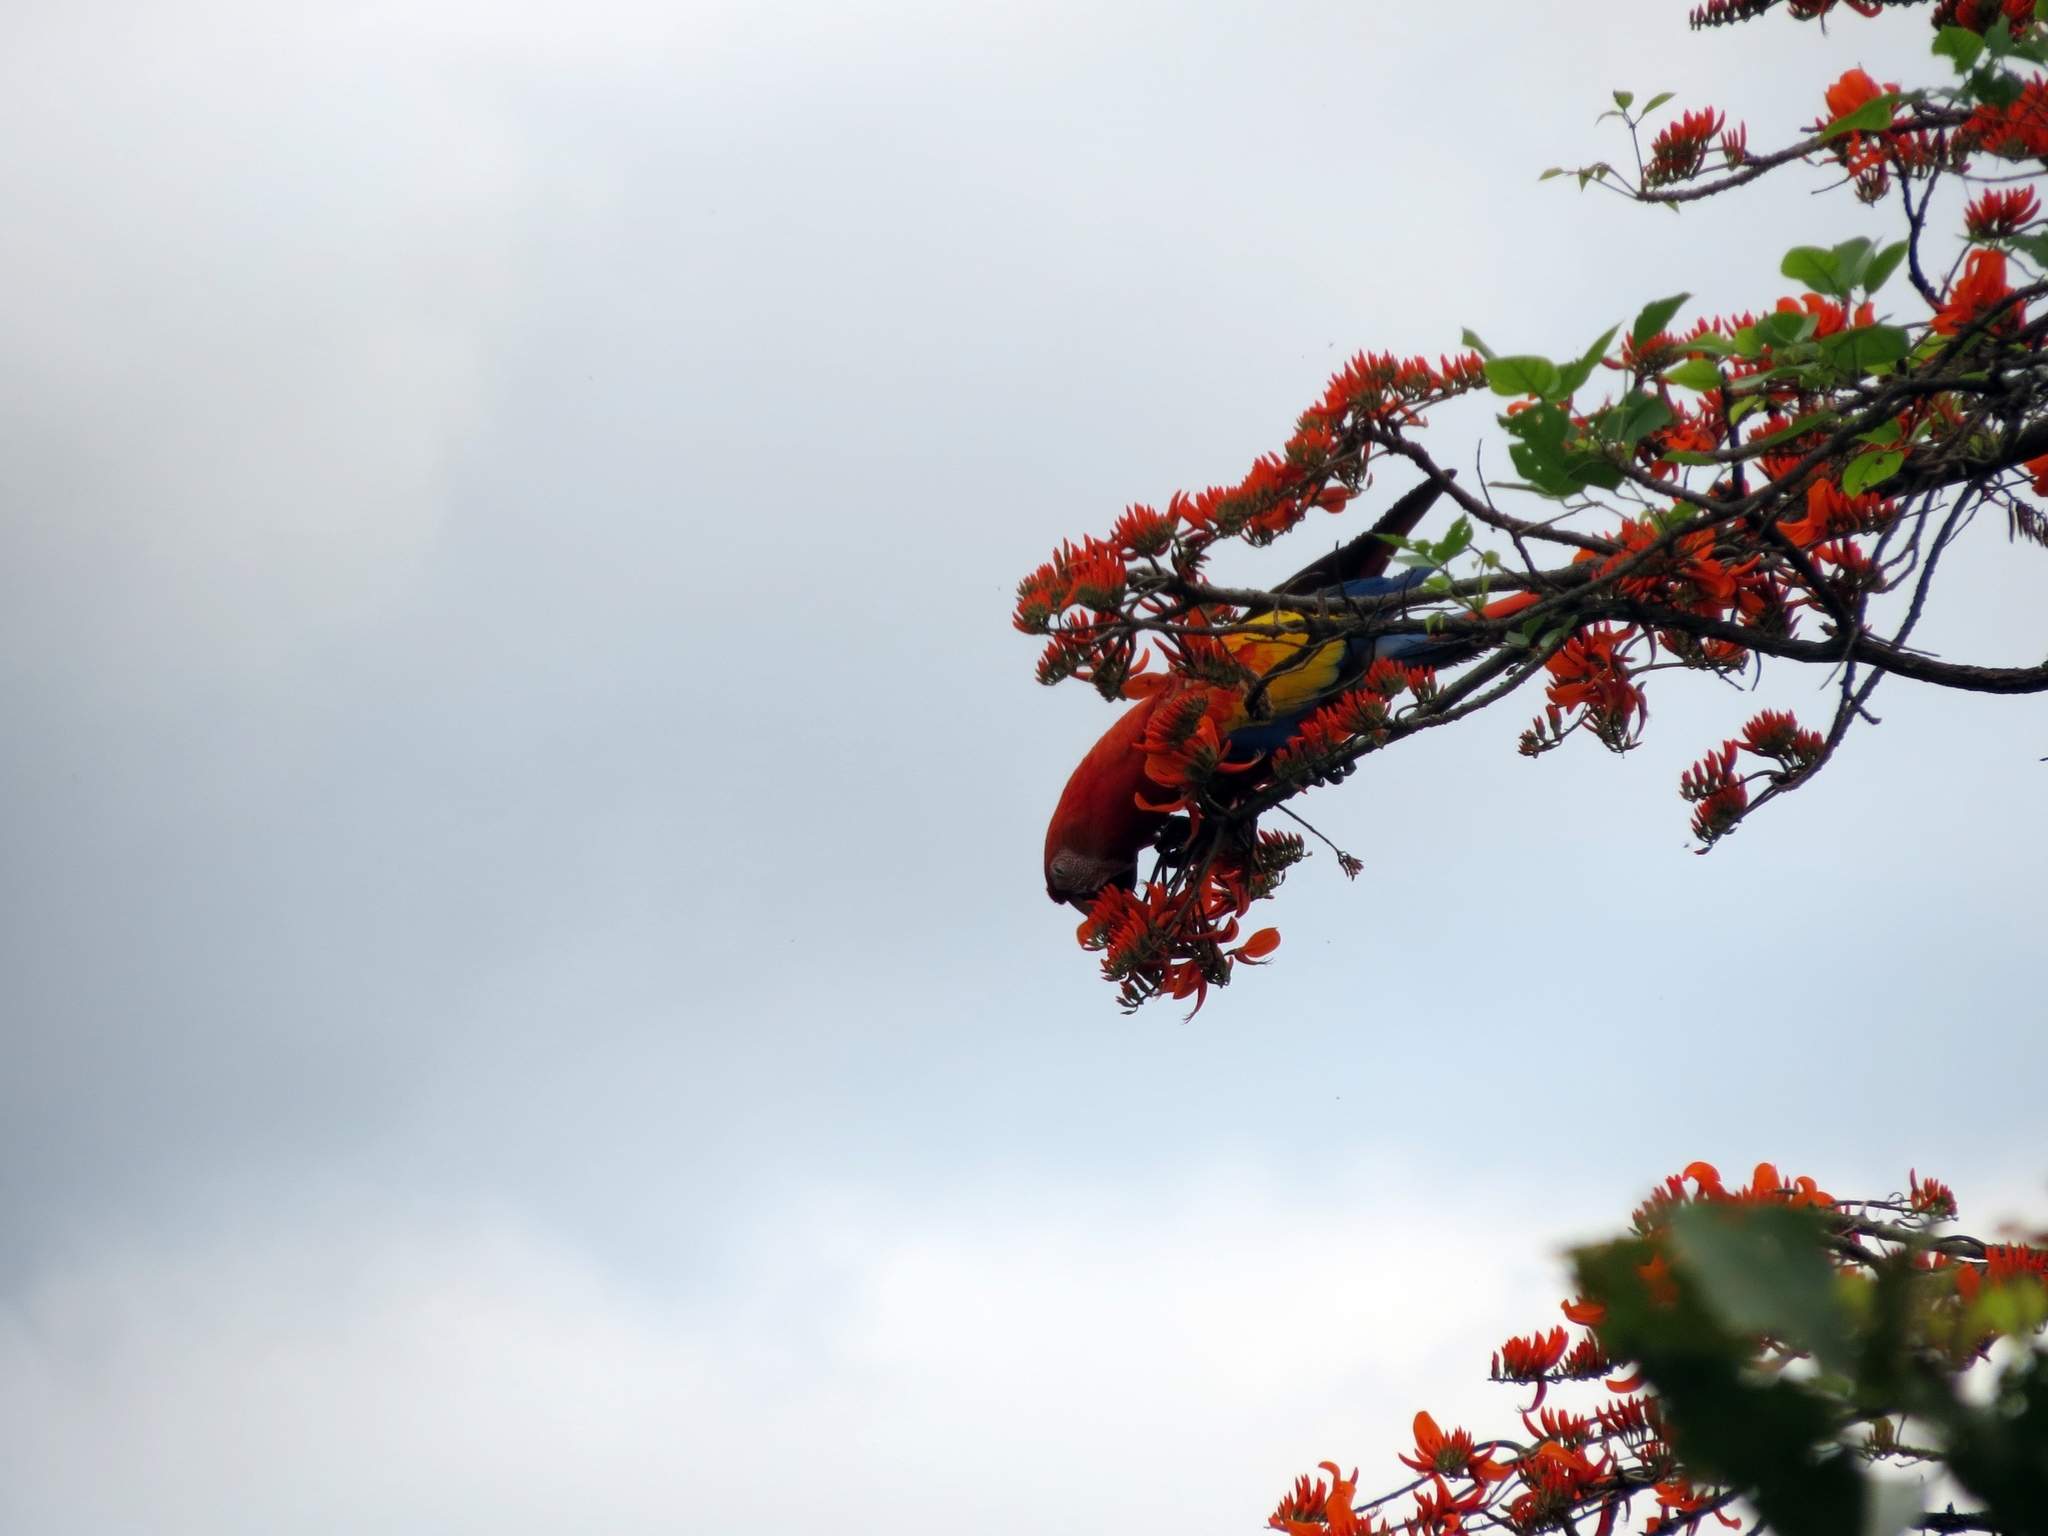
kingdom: Animalia
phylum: Chordata
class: Aves
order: Psittaciformes
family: Psittacidae
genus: Ara
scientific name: Ara macao
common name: Scarlet macaw
